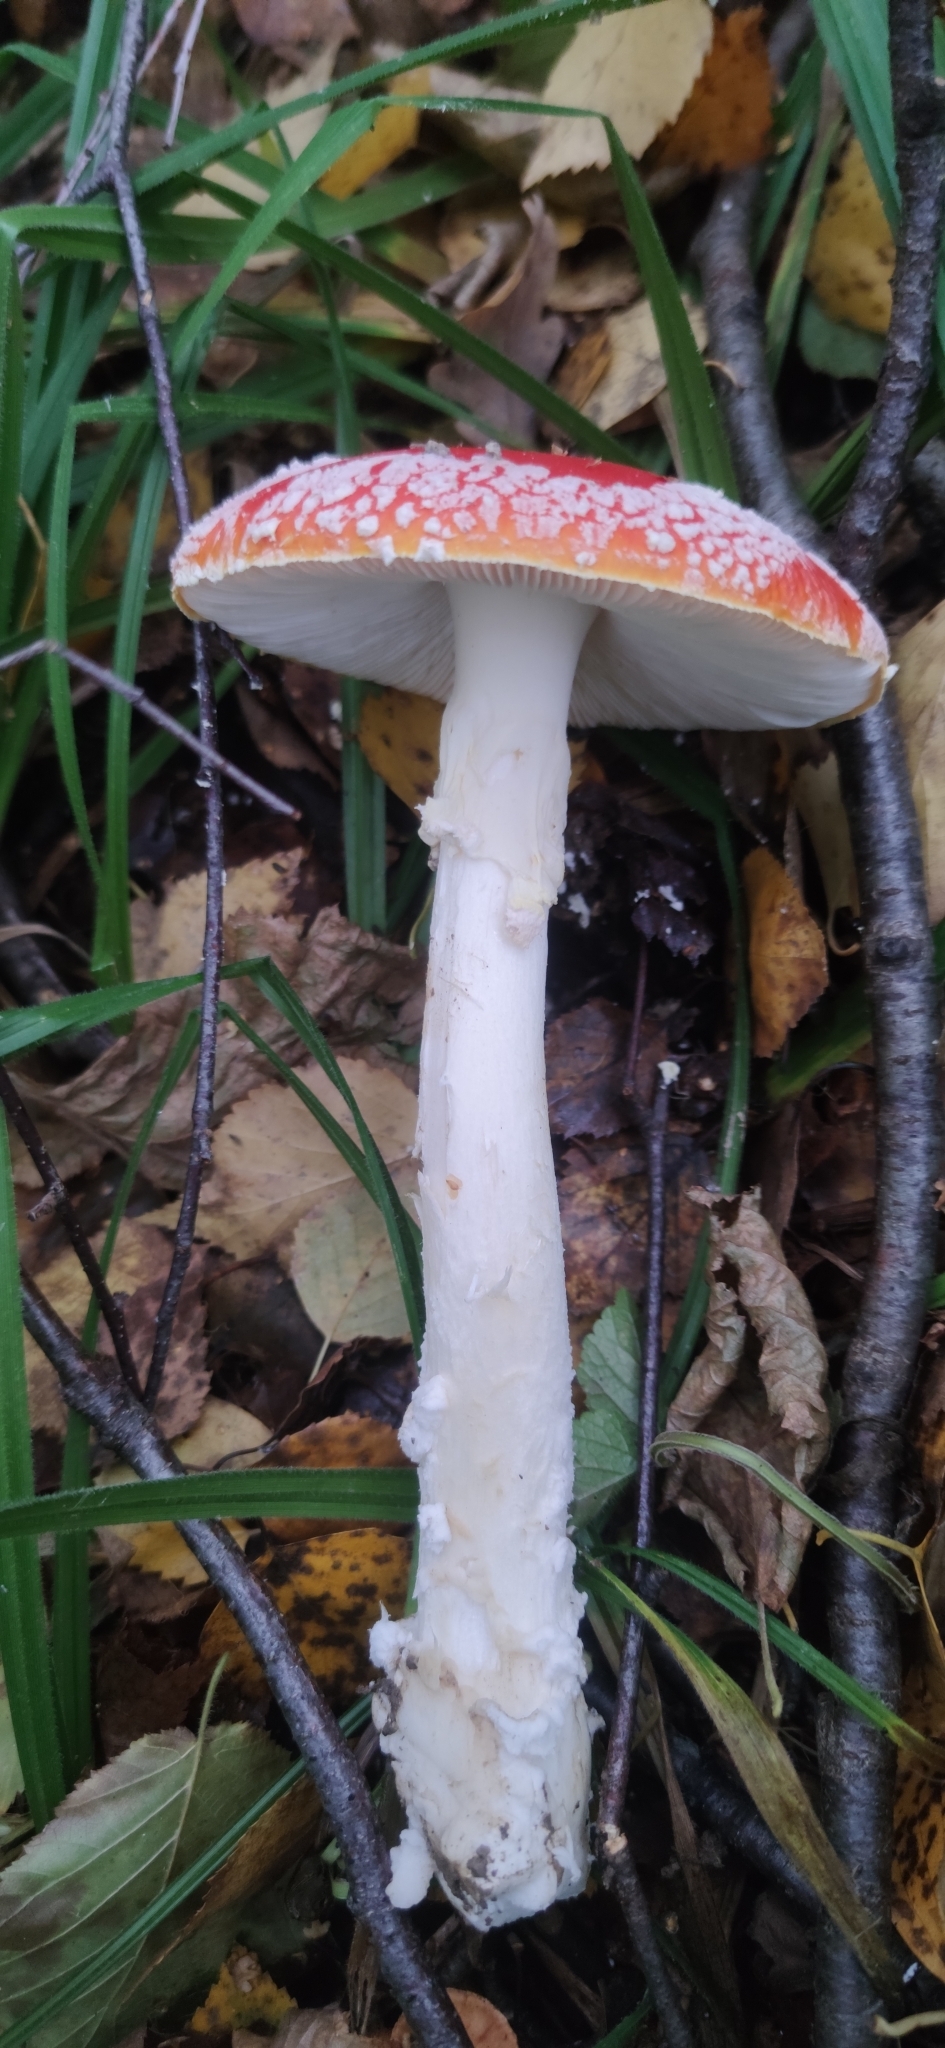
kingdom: Fungi
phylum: Basidiomycota
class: Agaricomycetes
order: Agaricales
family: Amanitaceae
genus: Amanita
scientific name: Amanita muscaria
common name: Fly agaric
